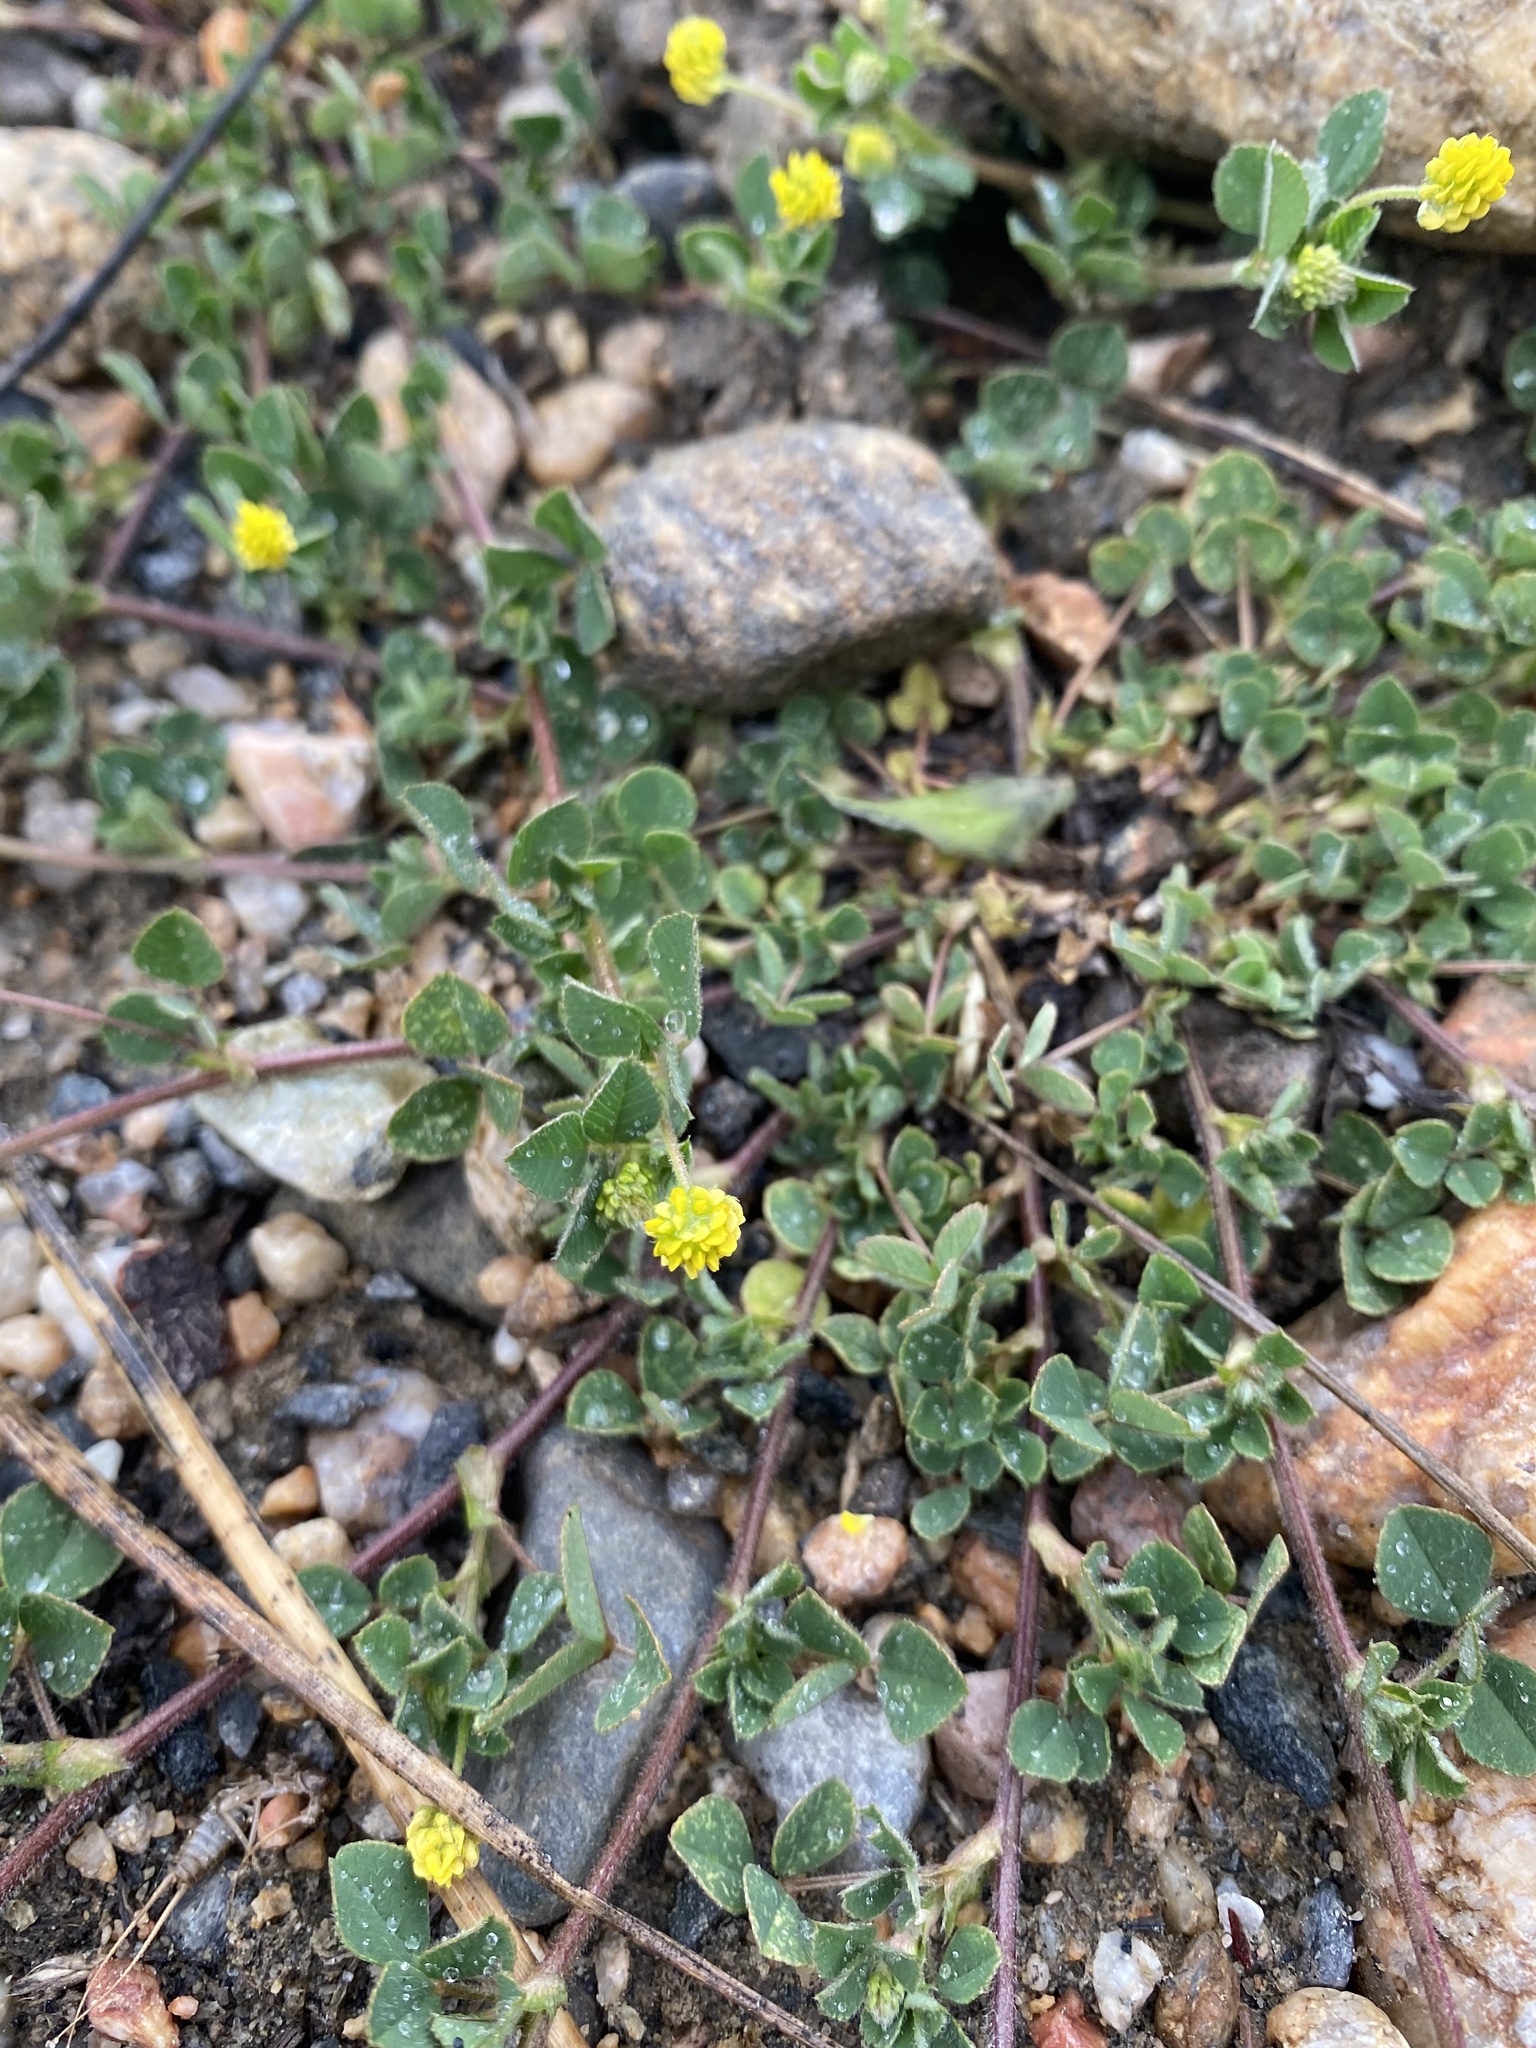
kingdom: Plantae
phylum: Tracheophyta
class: Magnoliopsida
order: Fabales
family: Fabaceae
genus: Medicago
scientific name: Medicago lupulina
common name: Black medick
